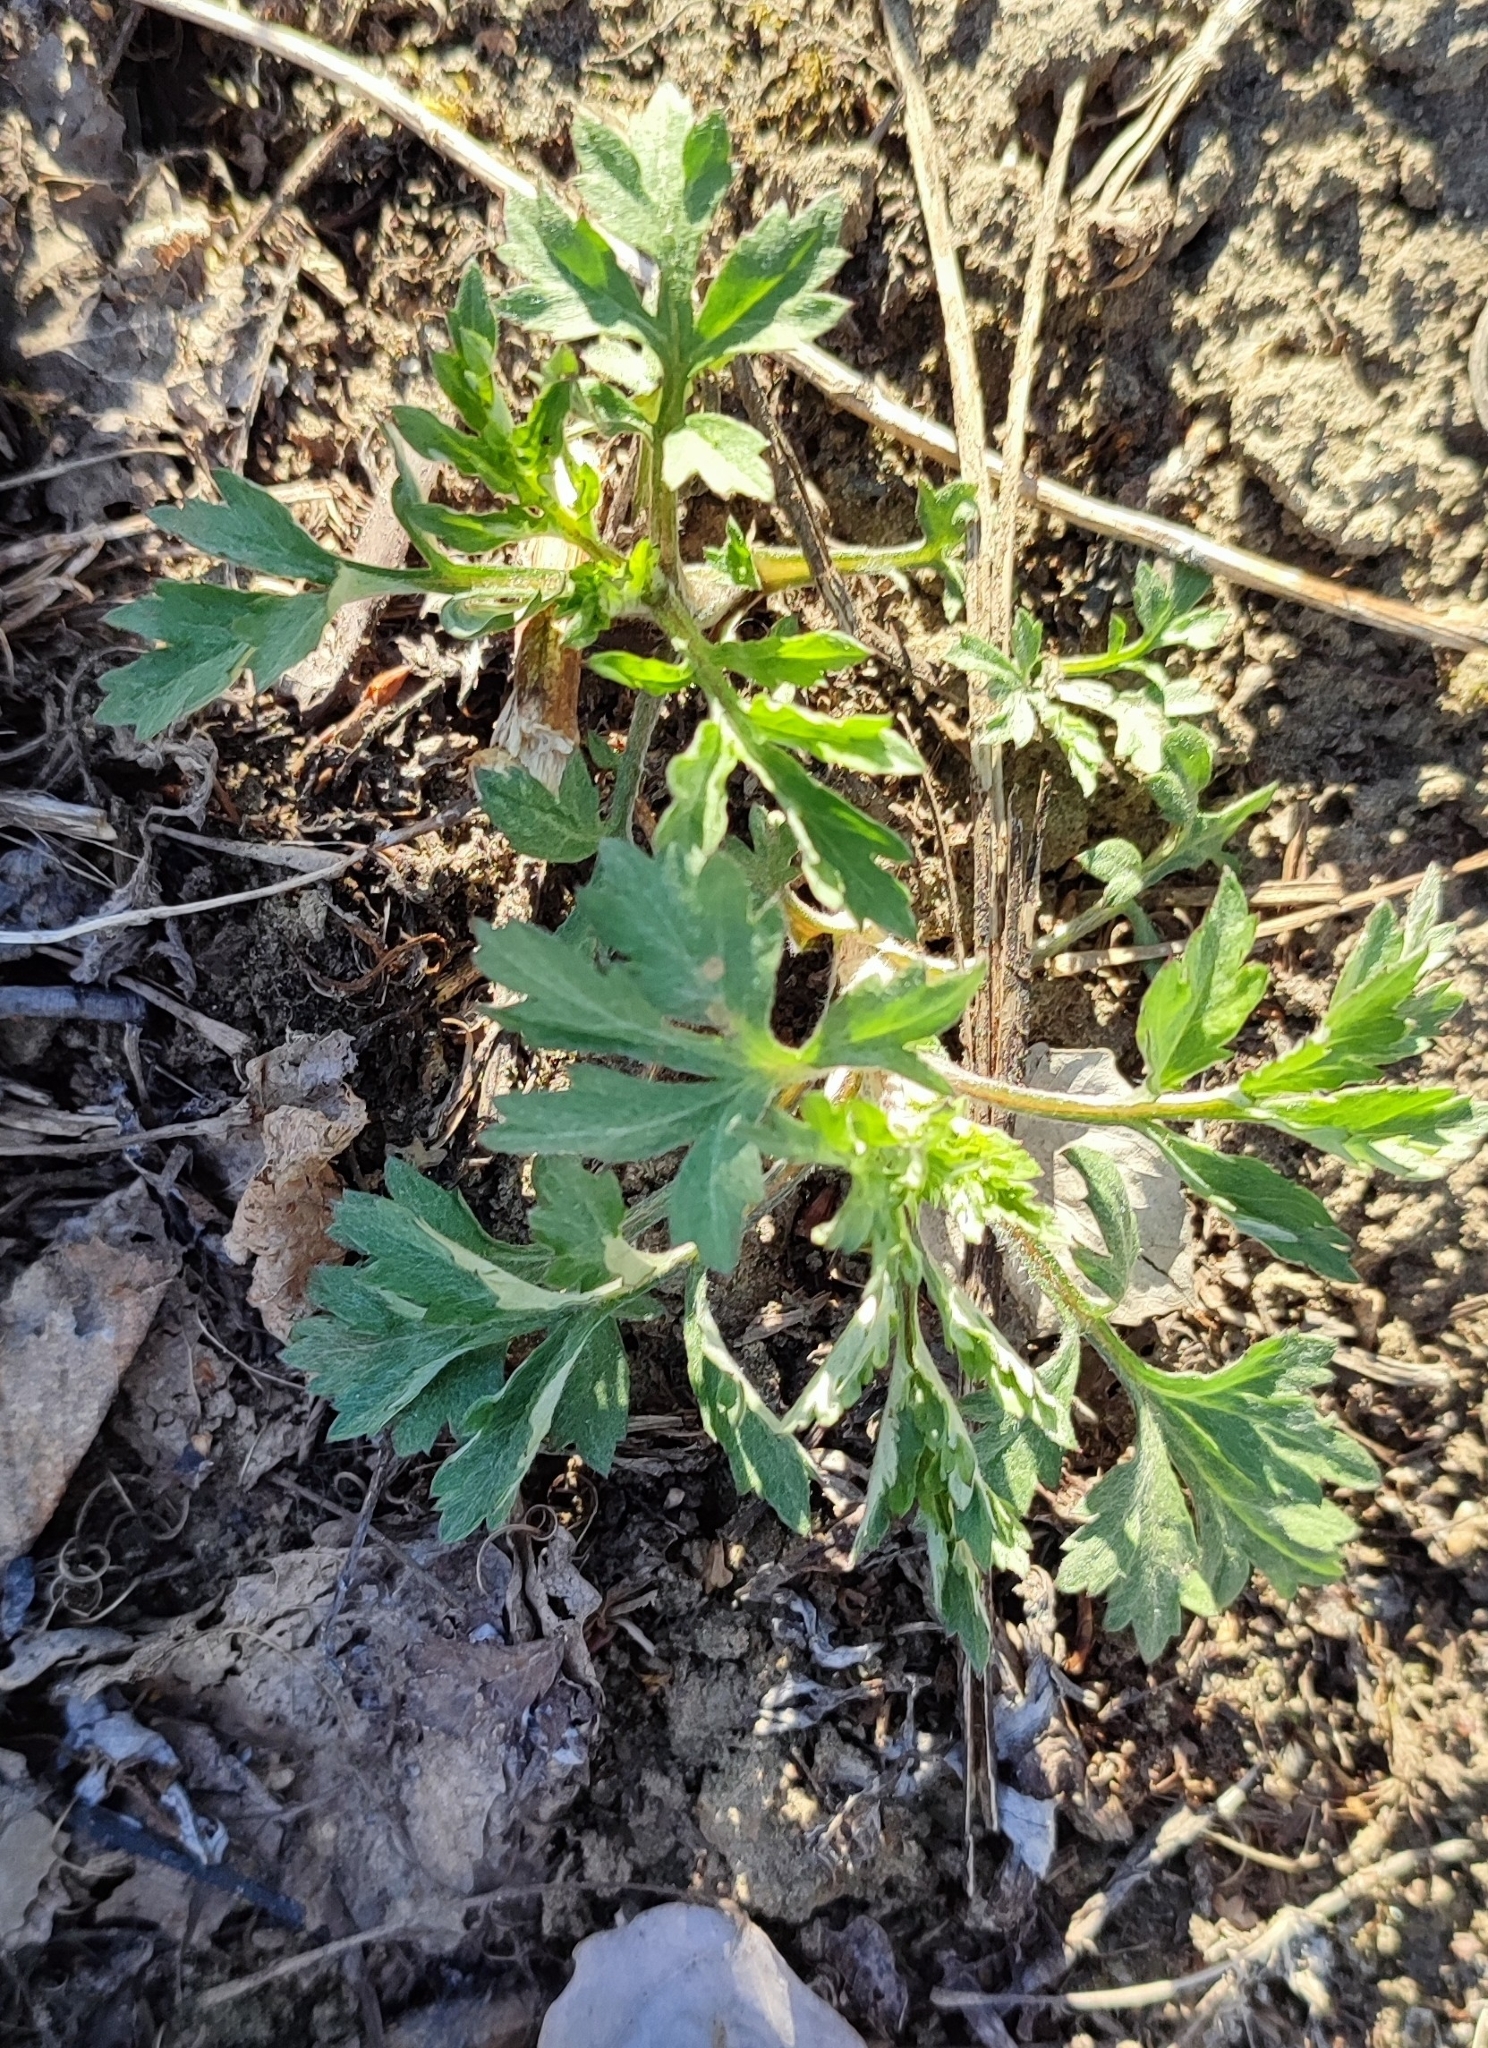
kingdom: Plantae
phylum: Tracheophyta
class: Magnoliopsida
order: Asterales
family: Asteraceae
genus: Artemisia
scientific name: Artemisia vulgaris
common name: Mugwort
